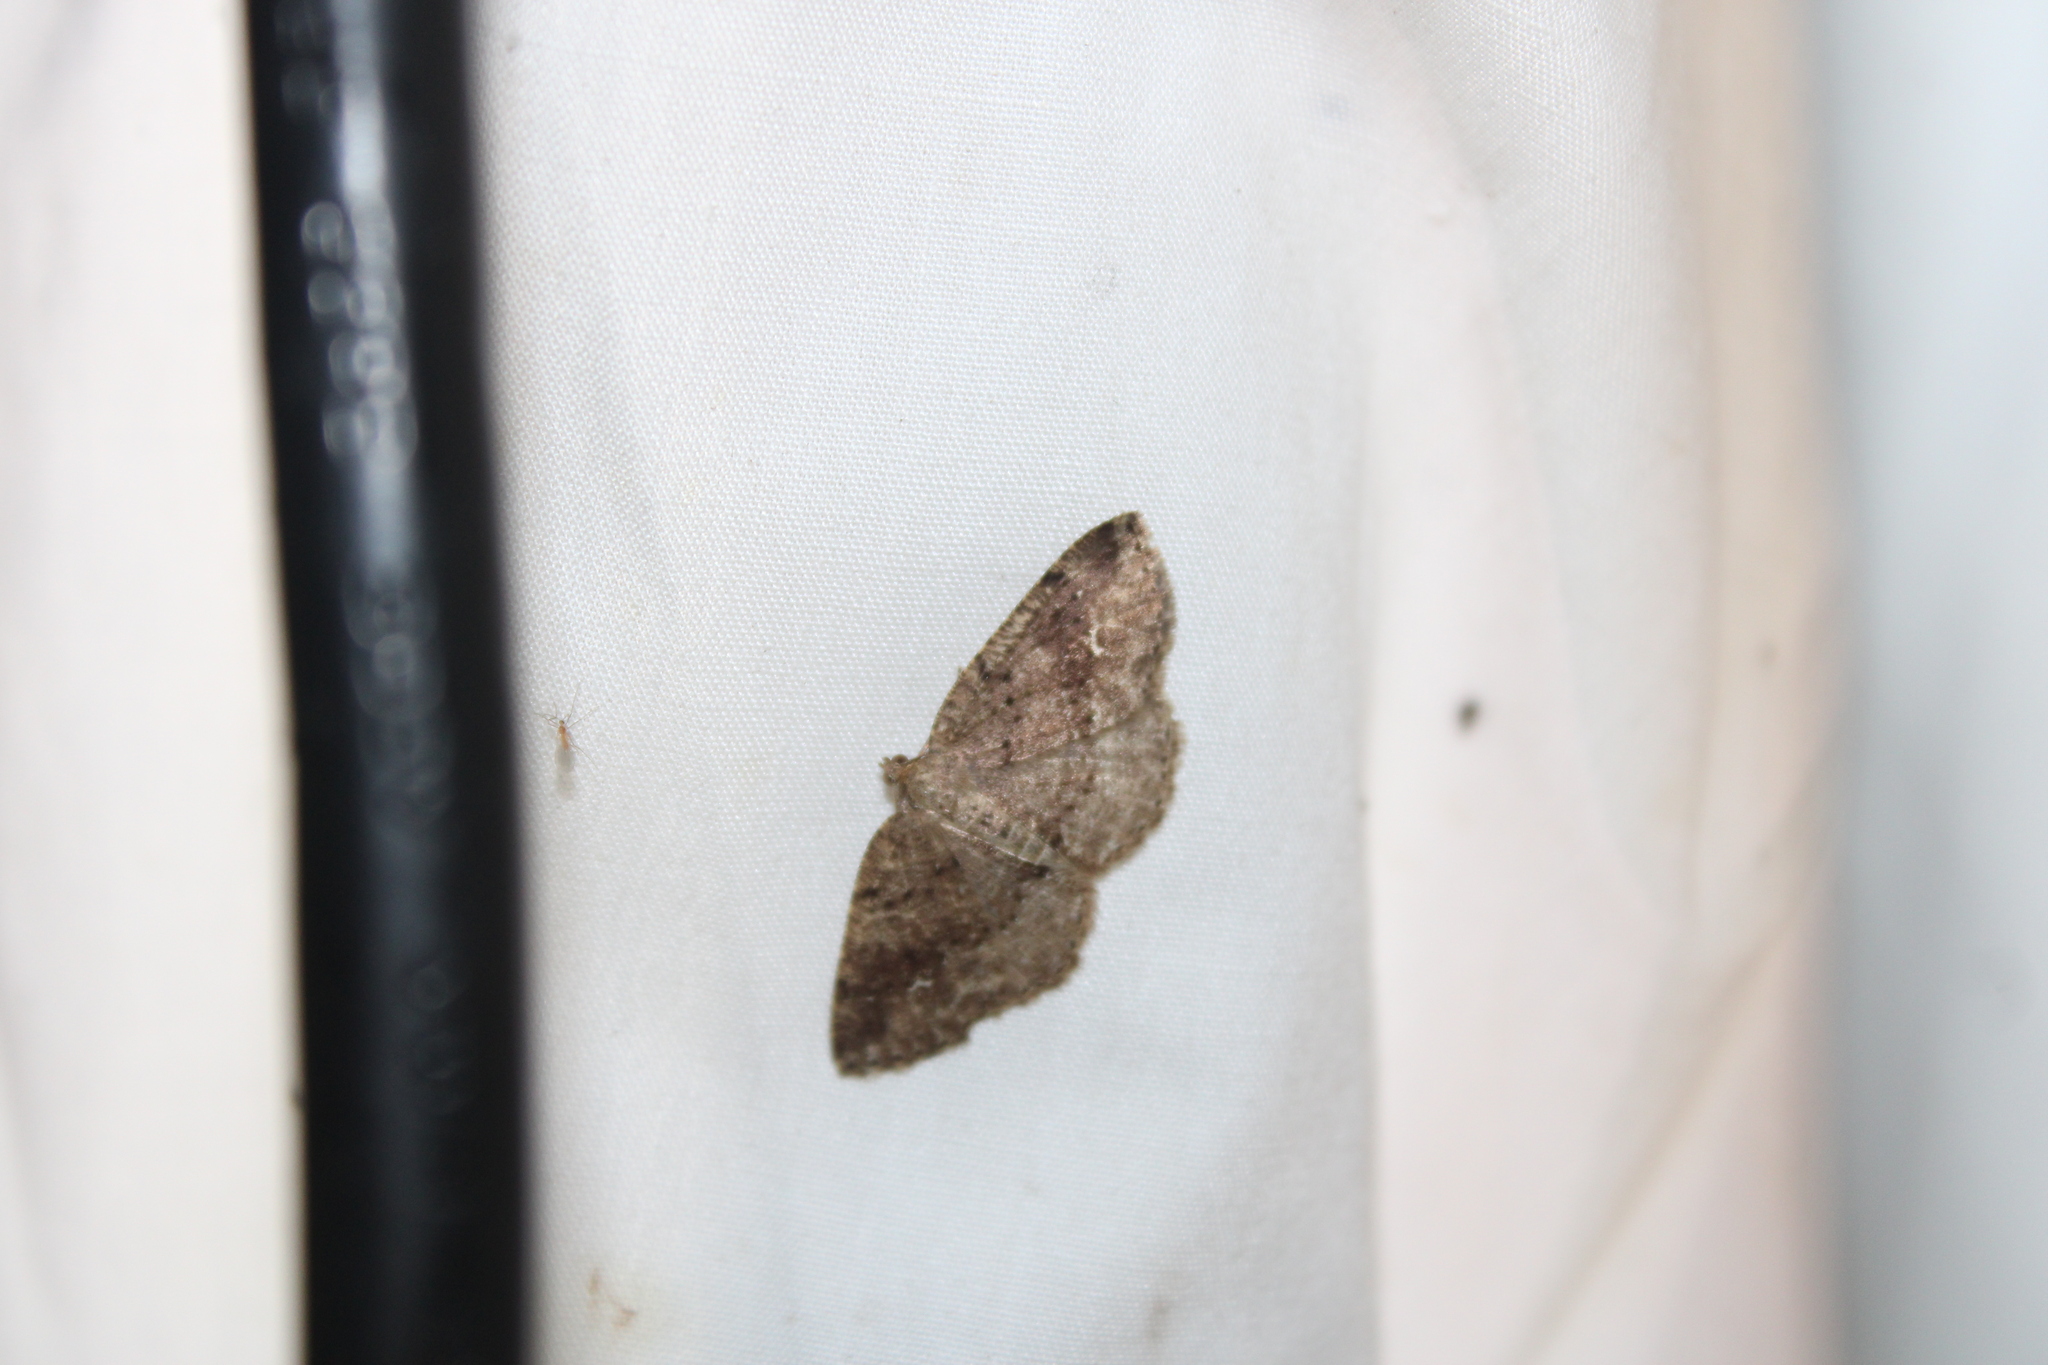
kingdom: Animalia
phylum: Arthropoda
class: Insecta
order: Lepidoptera
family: Geometridae
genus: Homochlodes
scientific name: Homochlodes fritillaria
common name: Pale homochlodes
